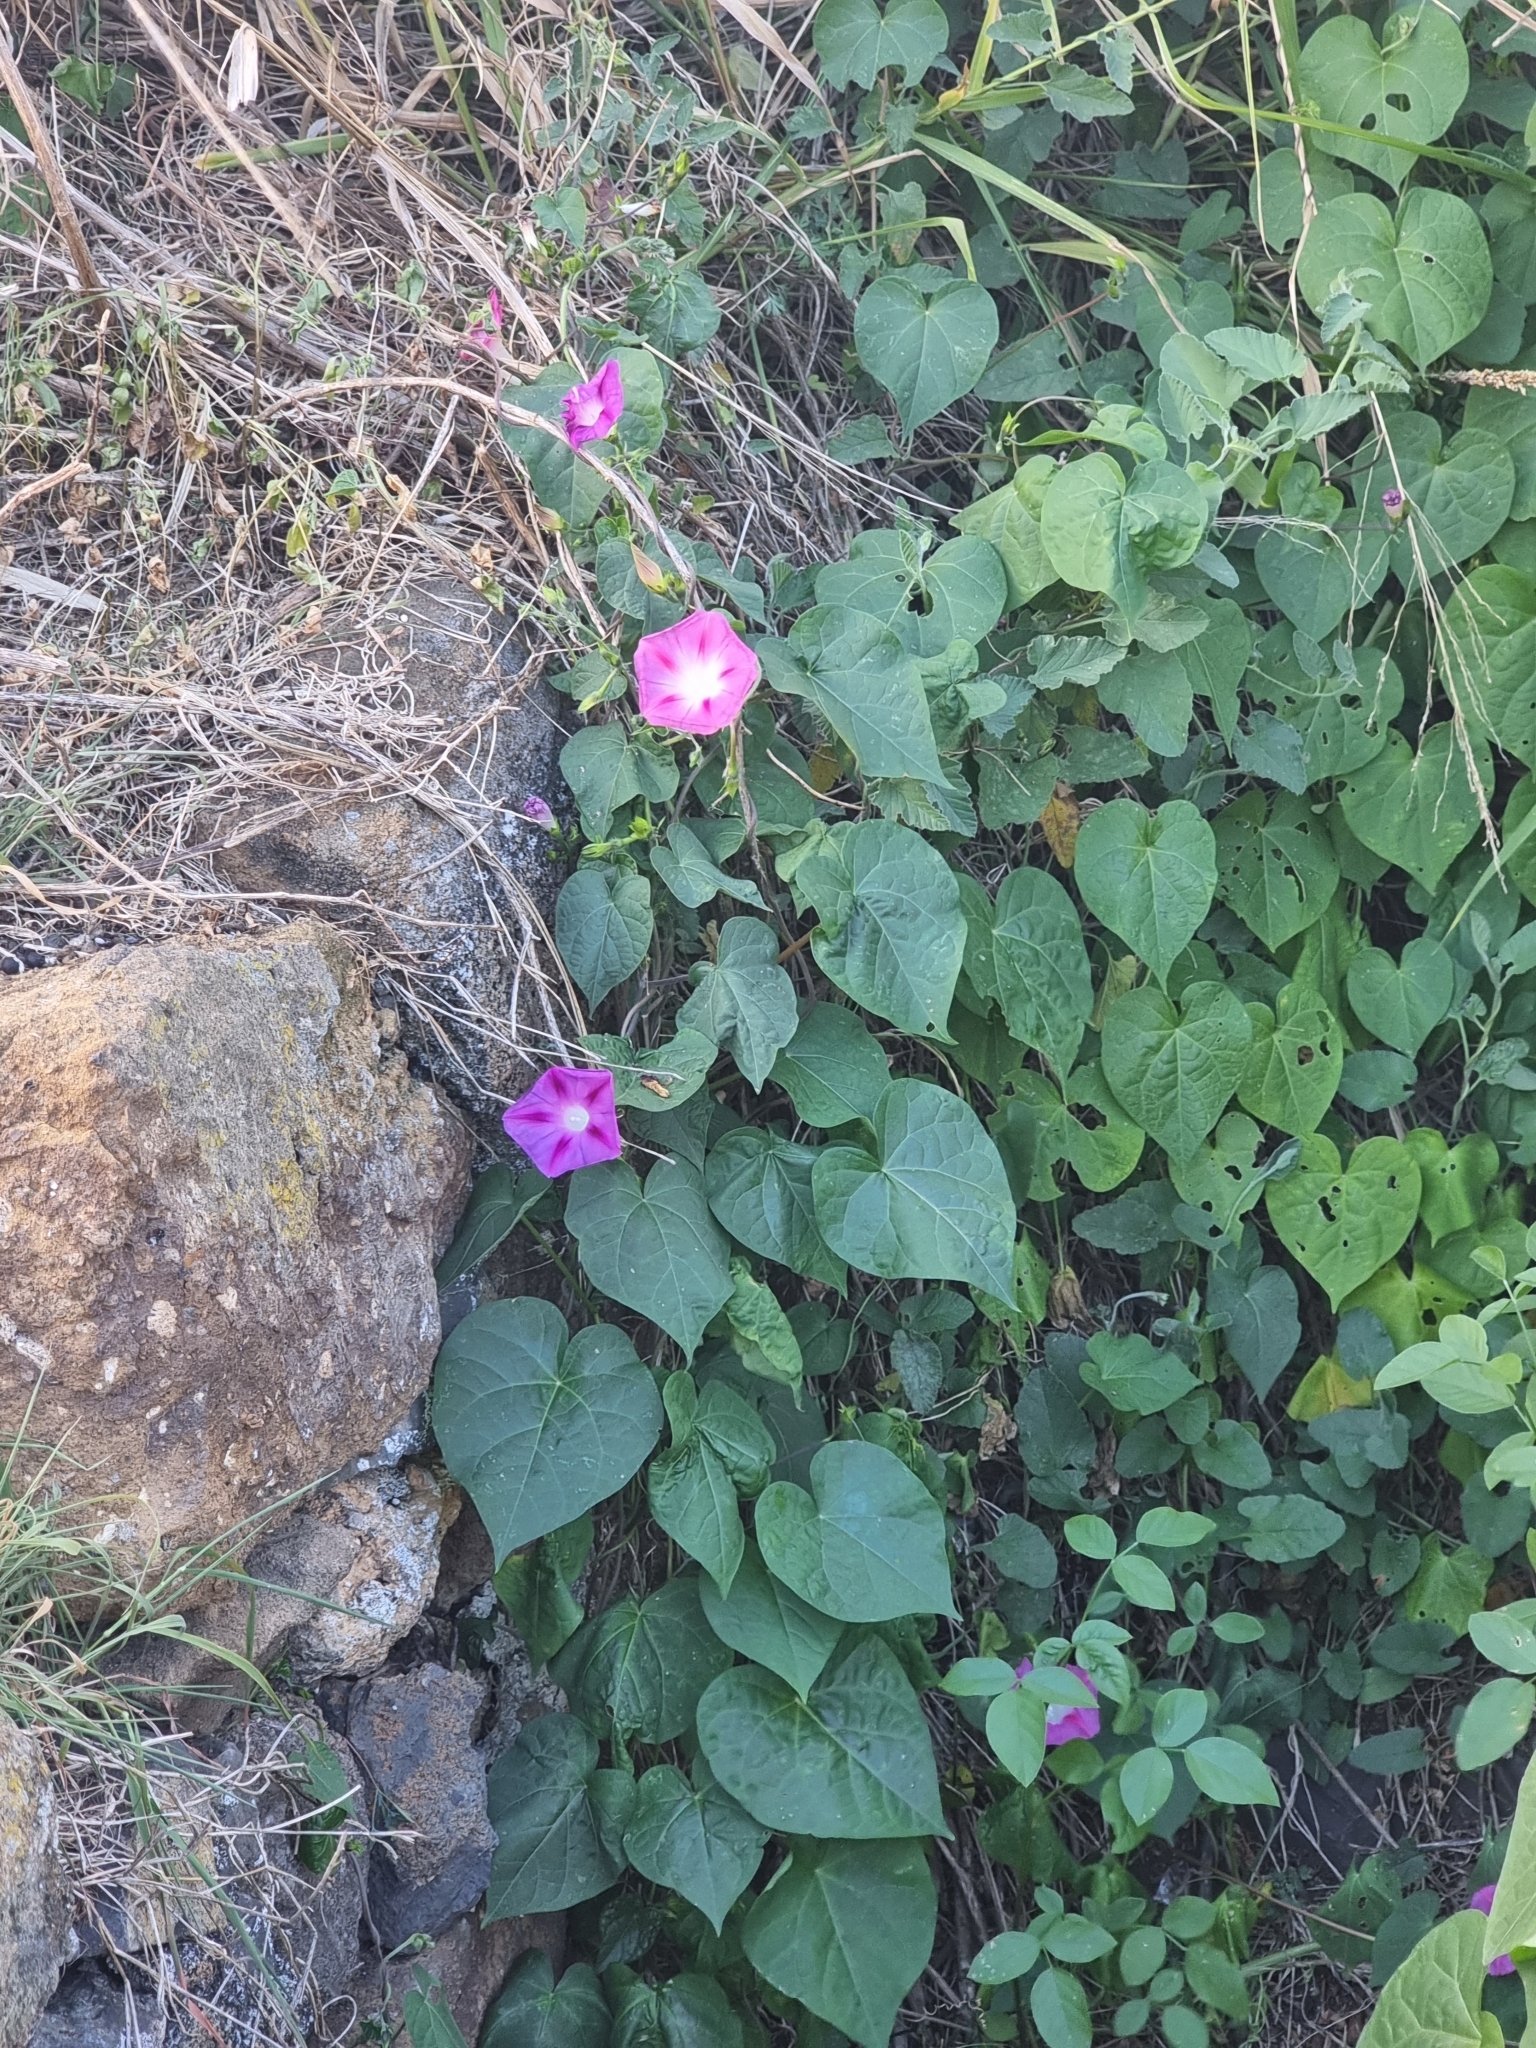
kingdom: Plantae
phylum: Tracheophyta
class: Magnoliopsida
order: Solanales
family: Convolvulaceae
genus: Ipomoea
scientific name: Ipomoea purpurea
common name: Common morning-glory
